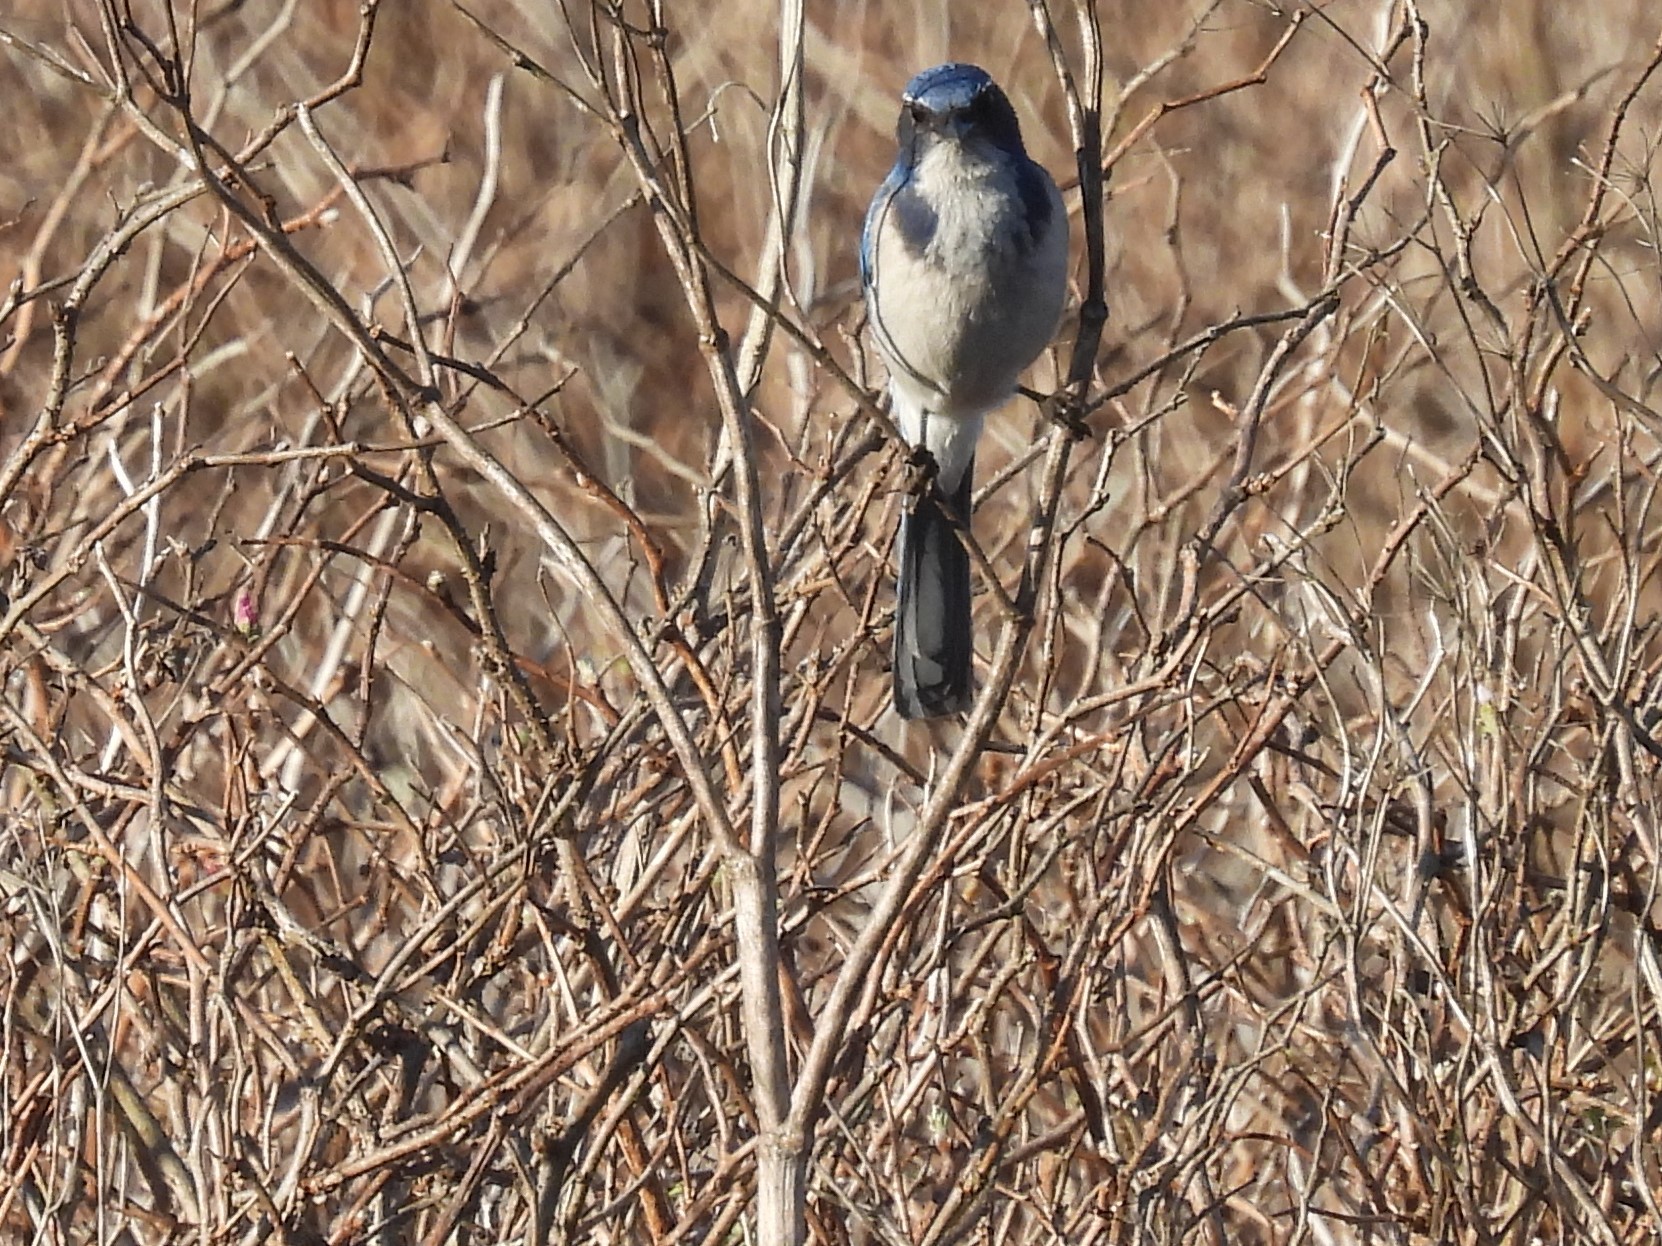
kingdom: Animalia
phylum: Chordata
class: Aves
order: Passeriformes
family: Corvidae
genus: Aphelocoma
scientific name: Aphelocoma californica
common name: California scrub-jay
